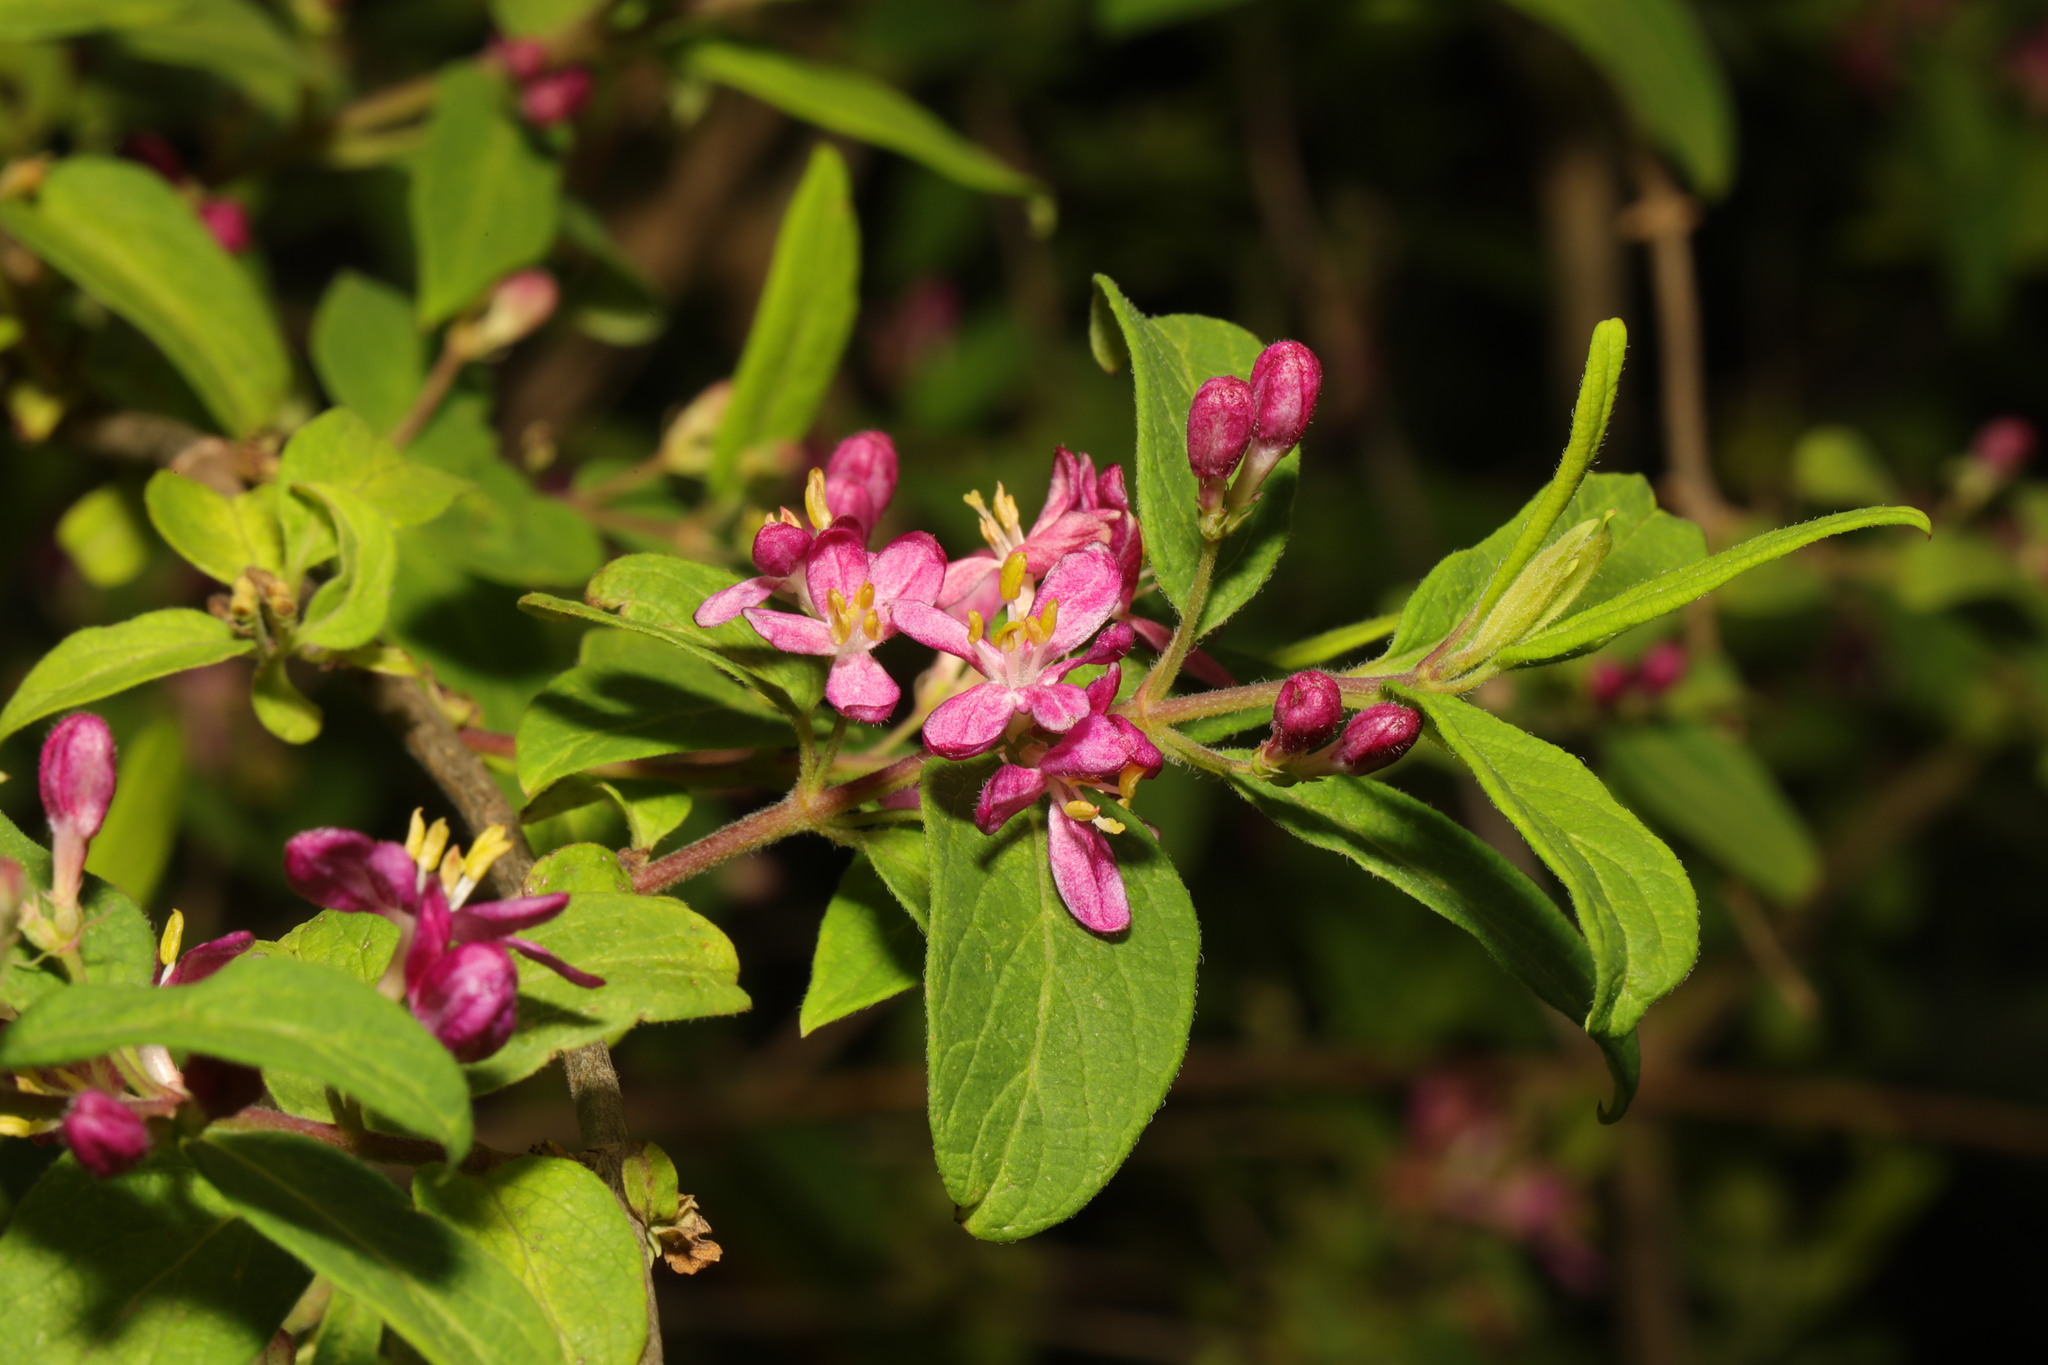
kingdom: Plantae
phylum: Tracheophyta
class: Magnoliopsida
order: Dipsacales
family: Caprifoliaceae
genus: Lonicera
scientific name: Lonicera tatarica
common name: Tatarian honeysuckle
